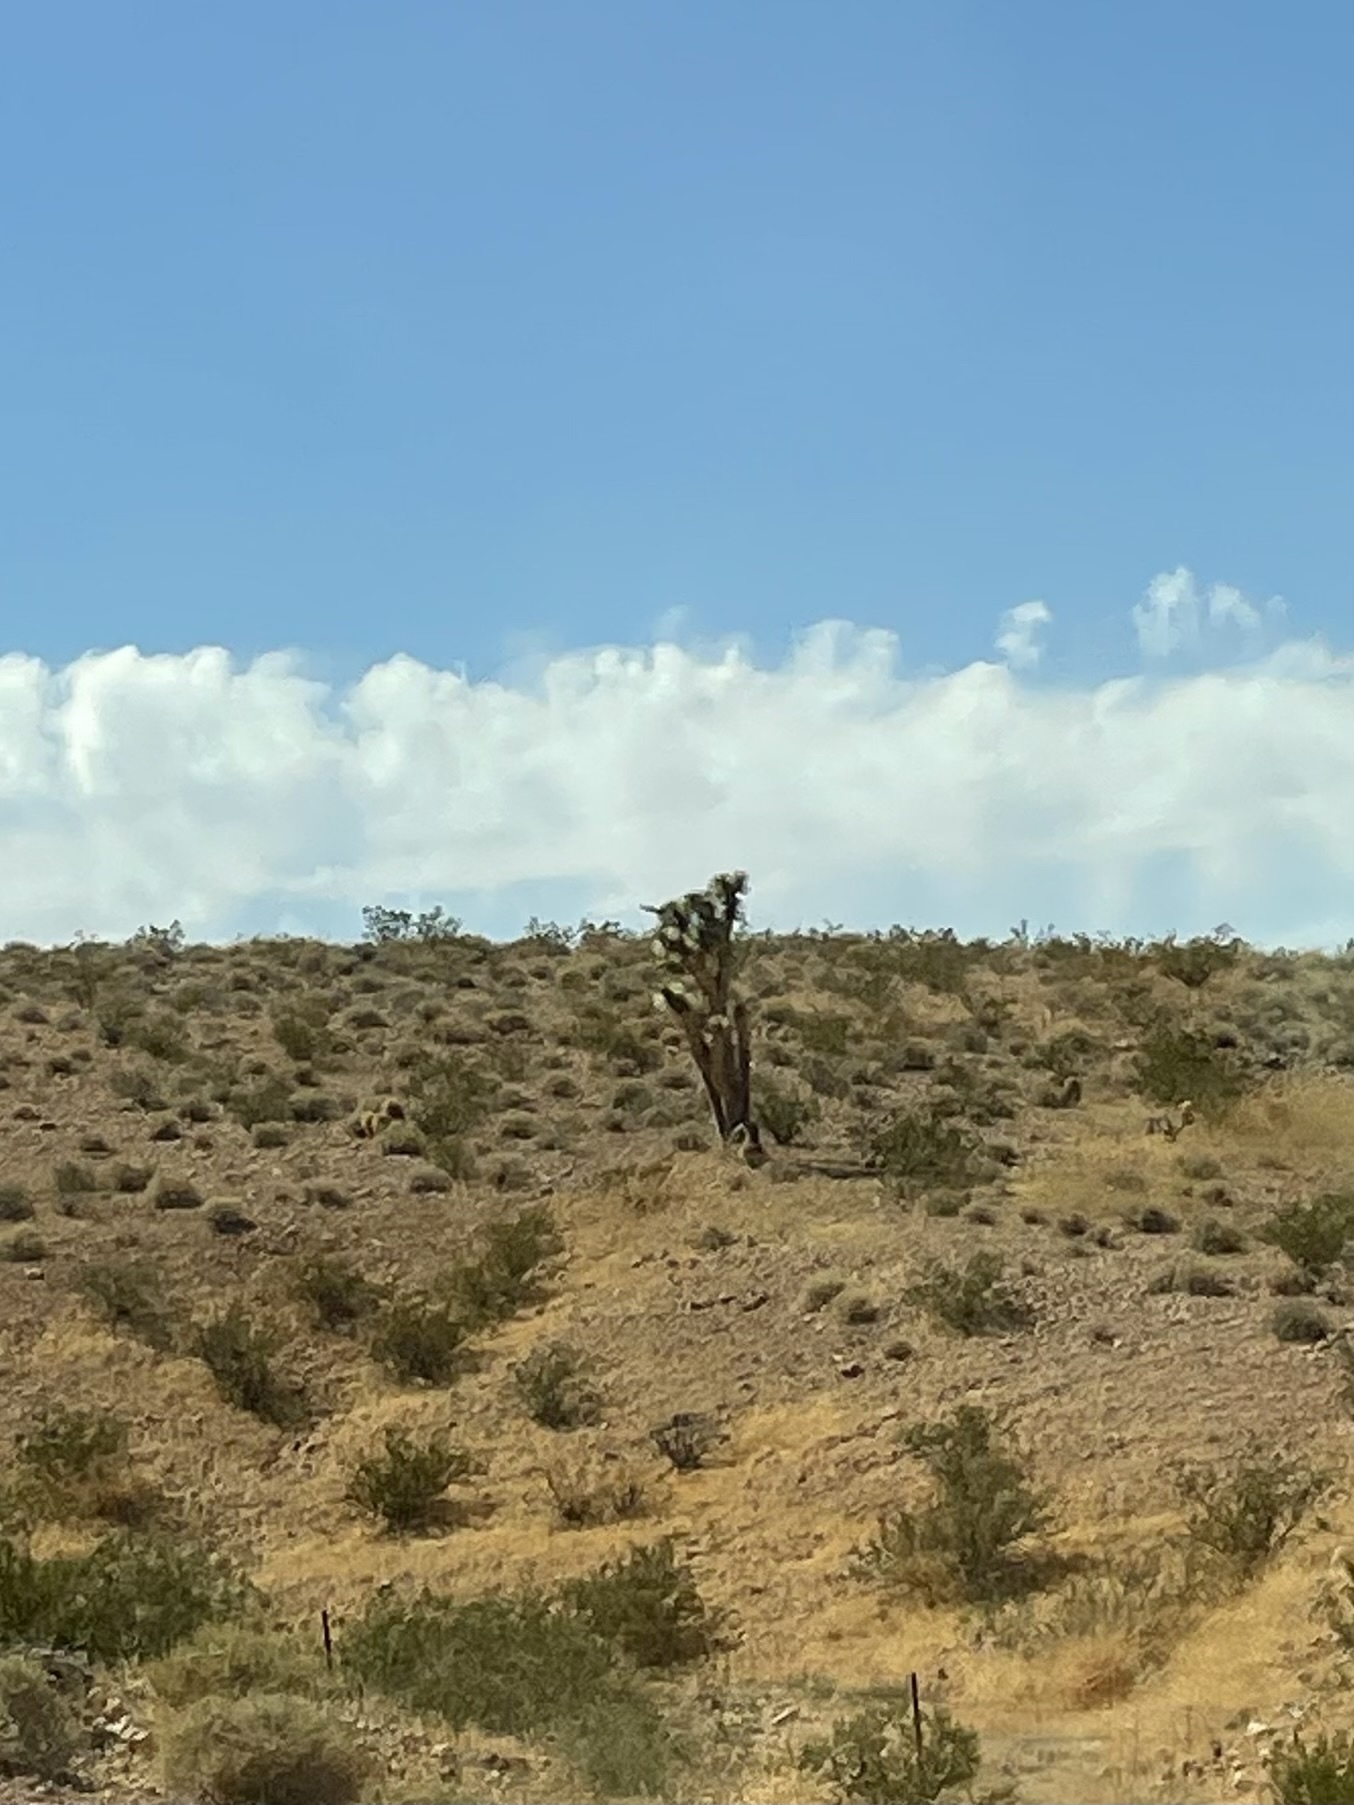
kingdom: Plantae
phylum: Tracheophyta
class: Liliopsida
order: Asparagales
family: Asparagaceae
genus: Yucca
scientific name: Yucca brevifolia
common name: Joshua tree
